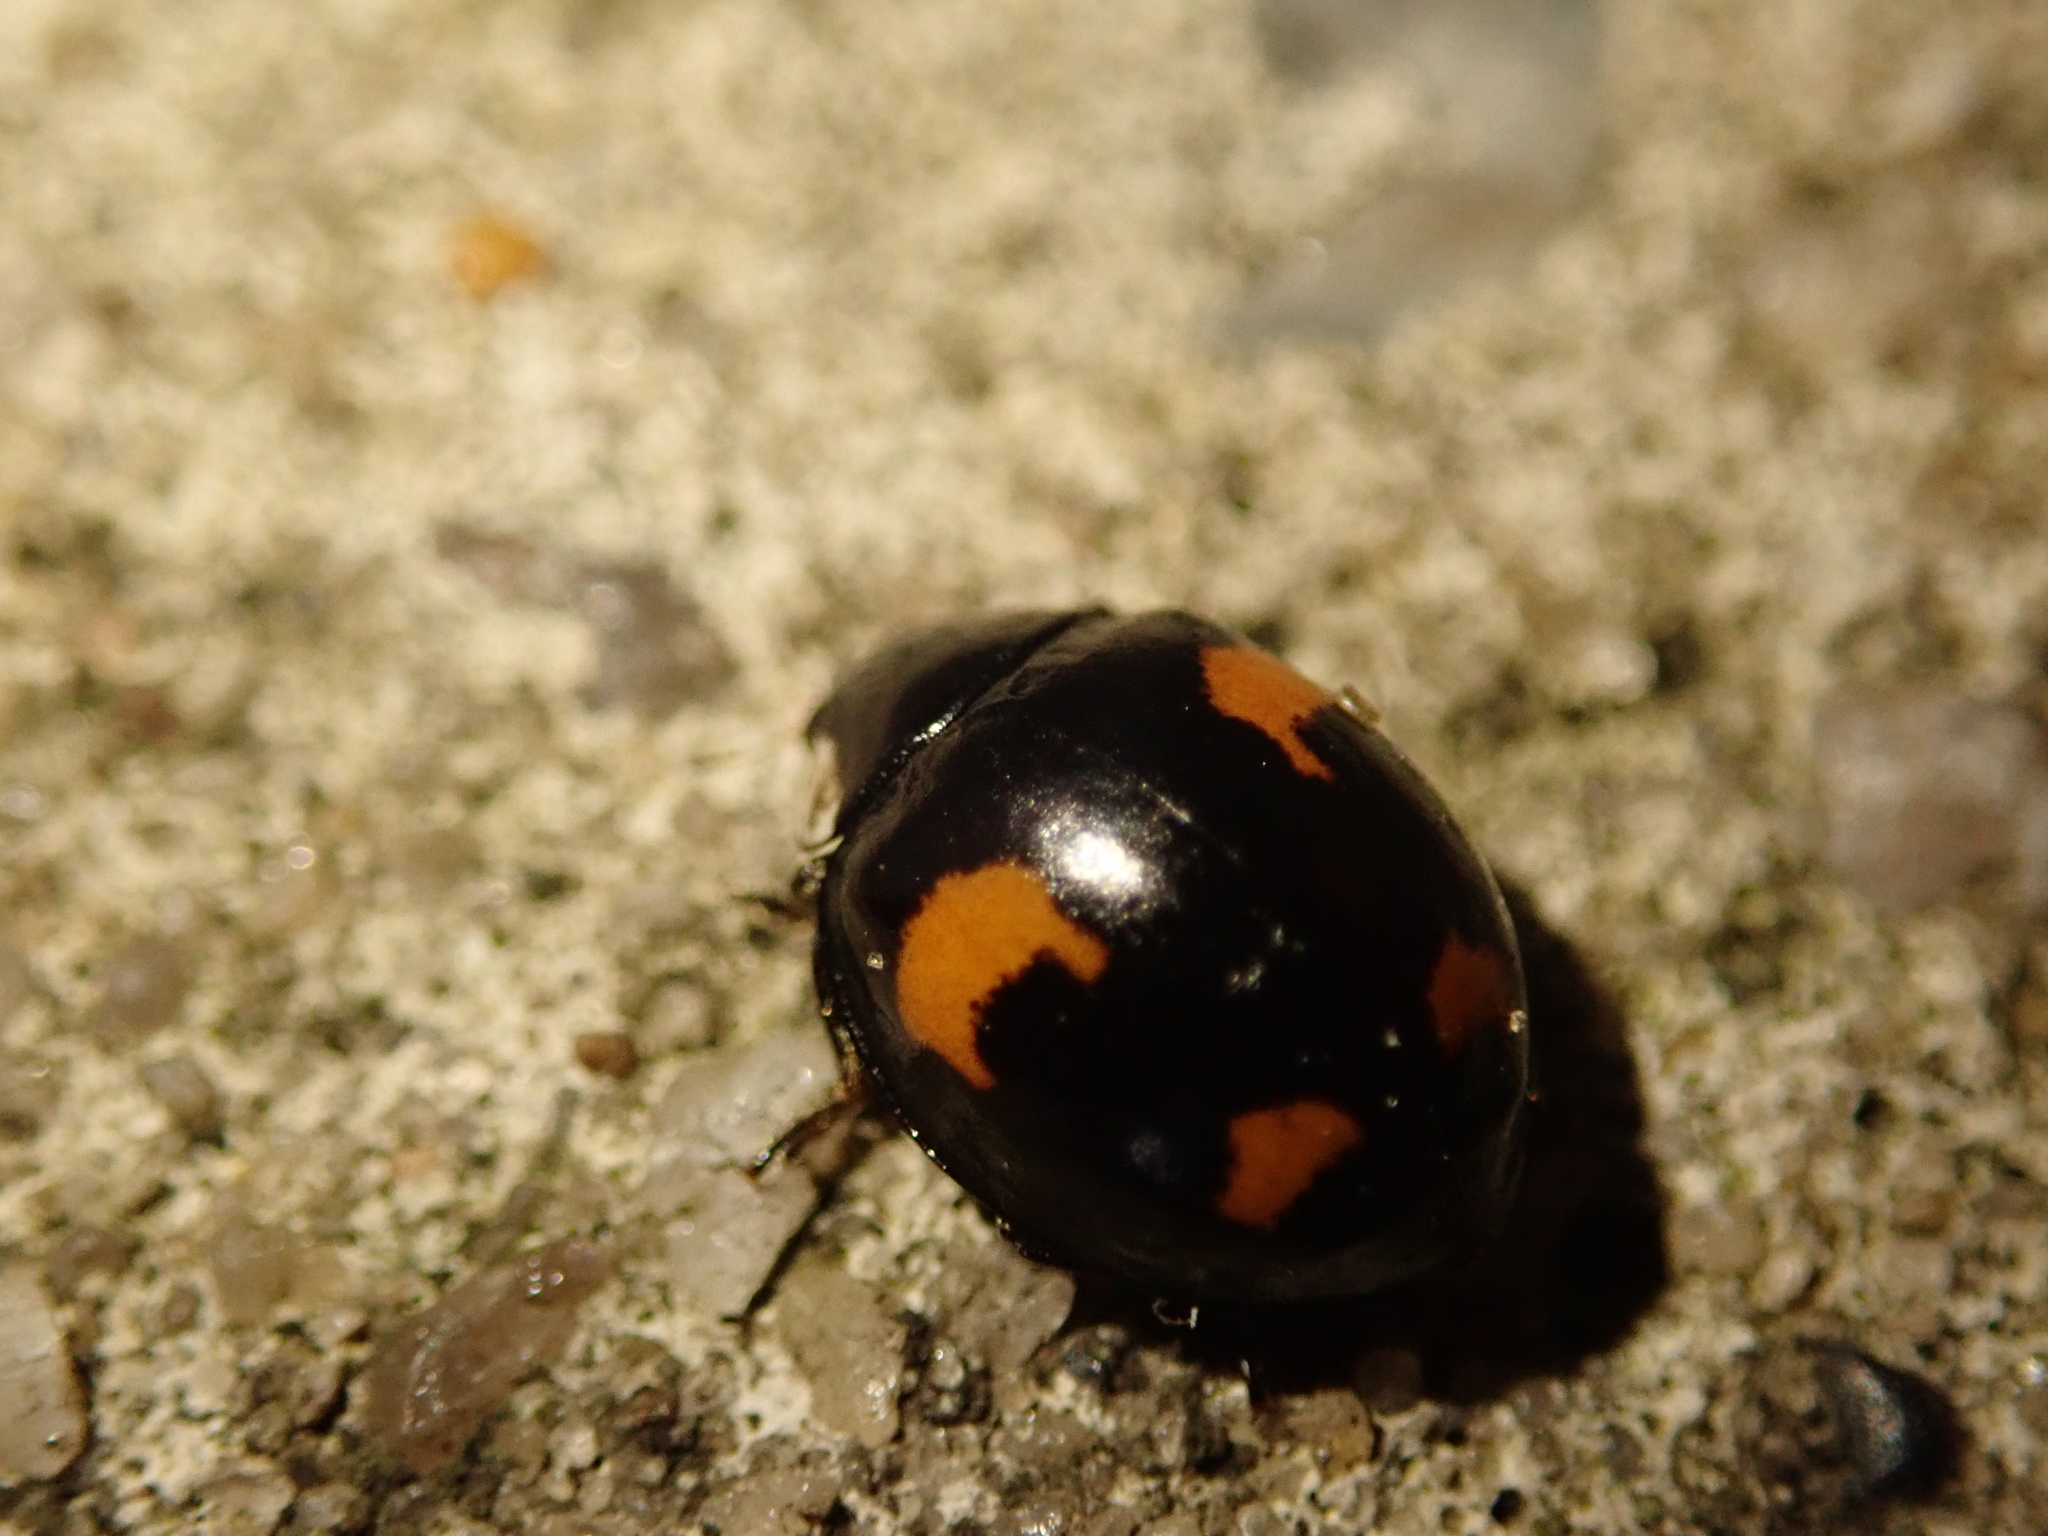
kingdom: Animalia
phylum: Arthropoda
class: Insecta
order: Coleoptera
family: Coccinellidae
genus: Harmonia
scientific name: Harmonia axyridis
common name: Harlequin ladybird
